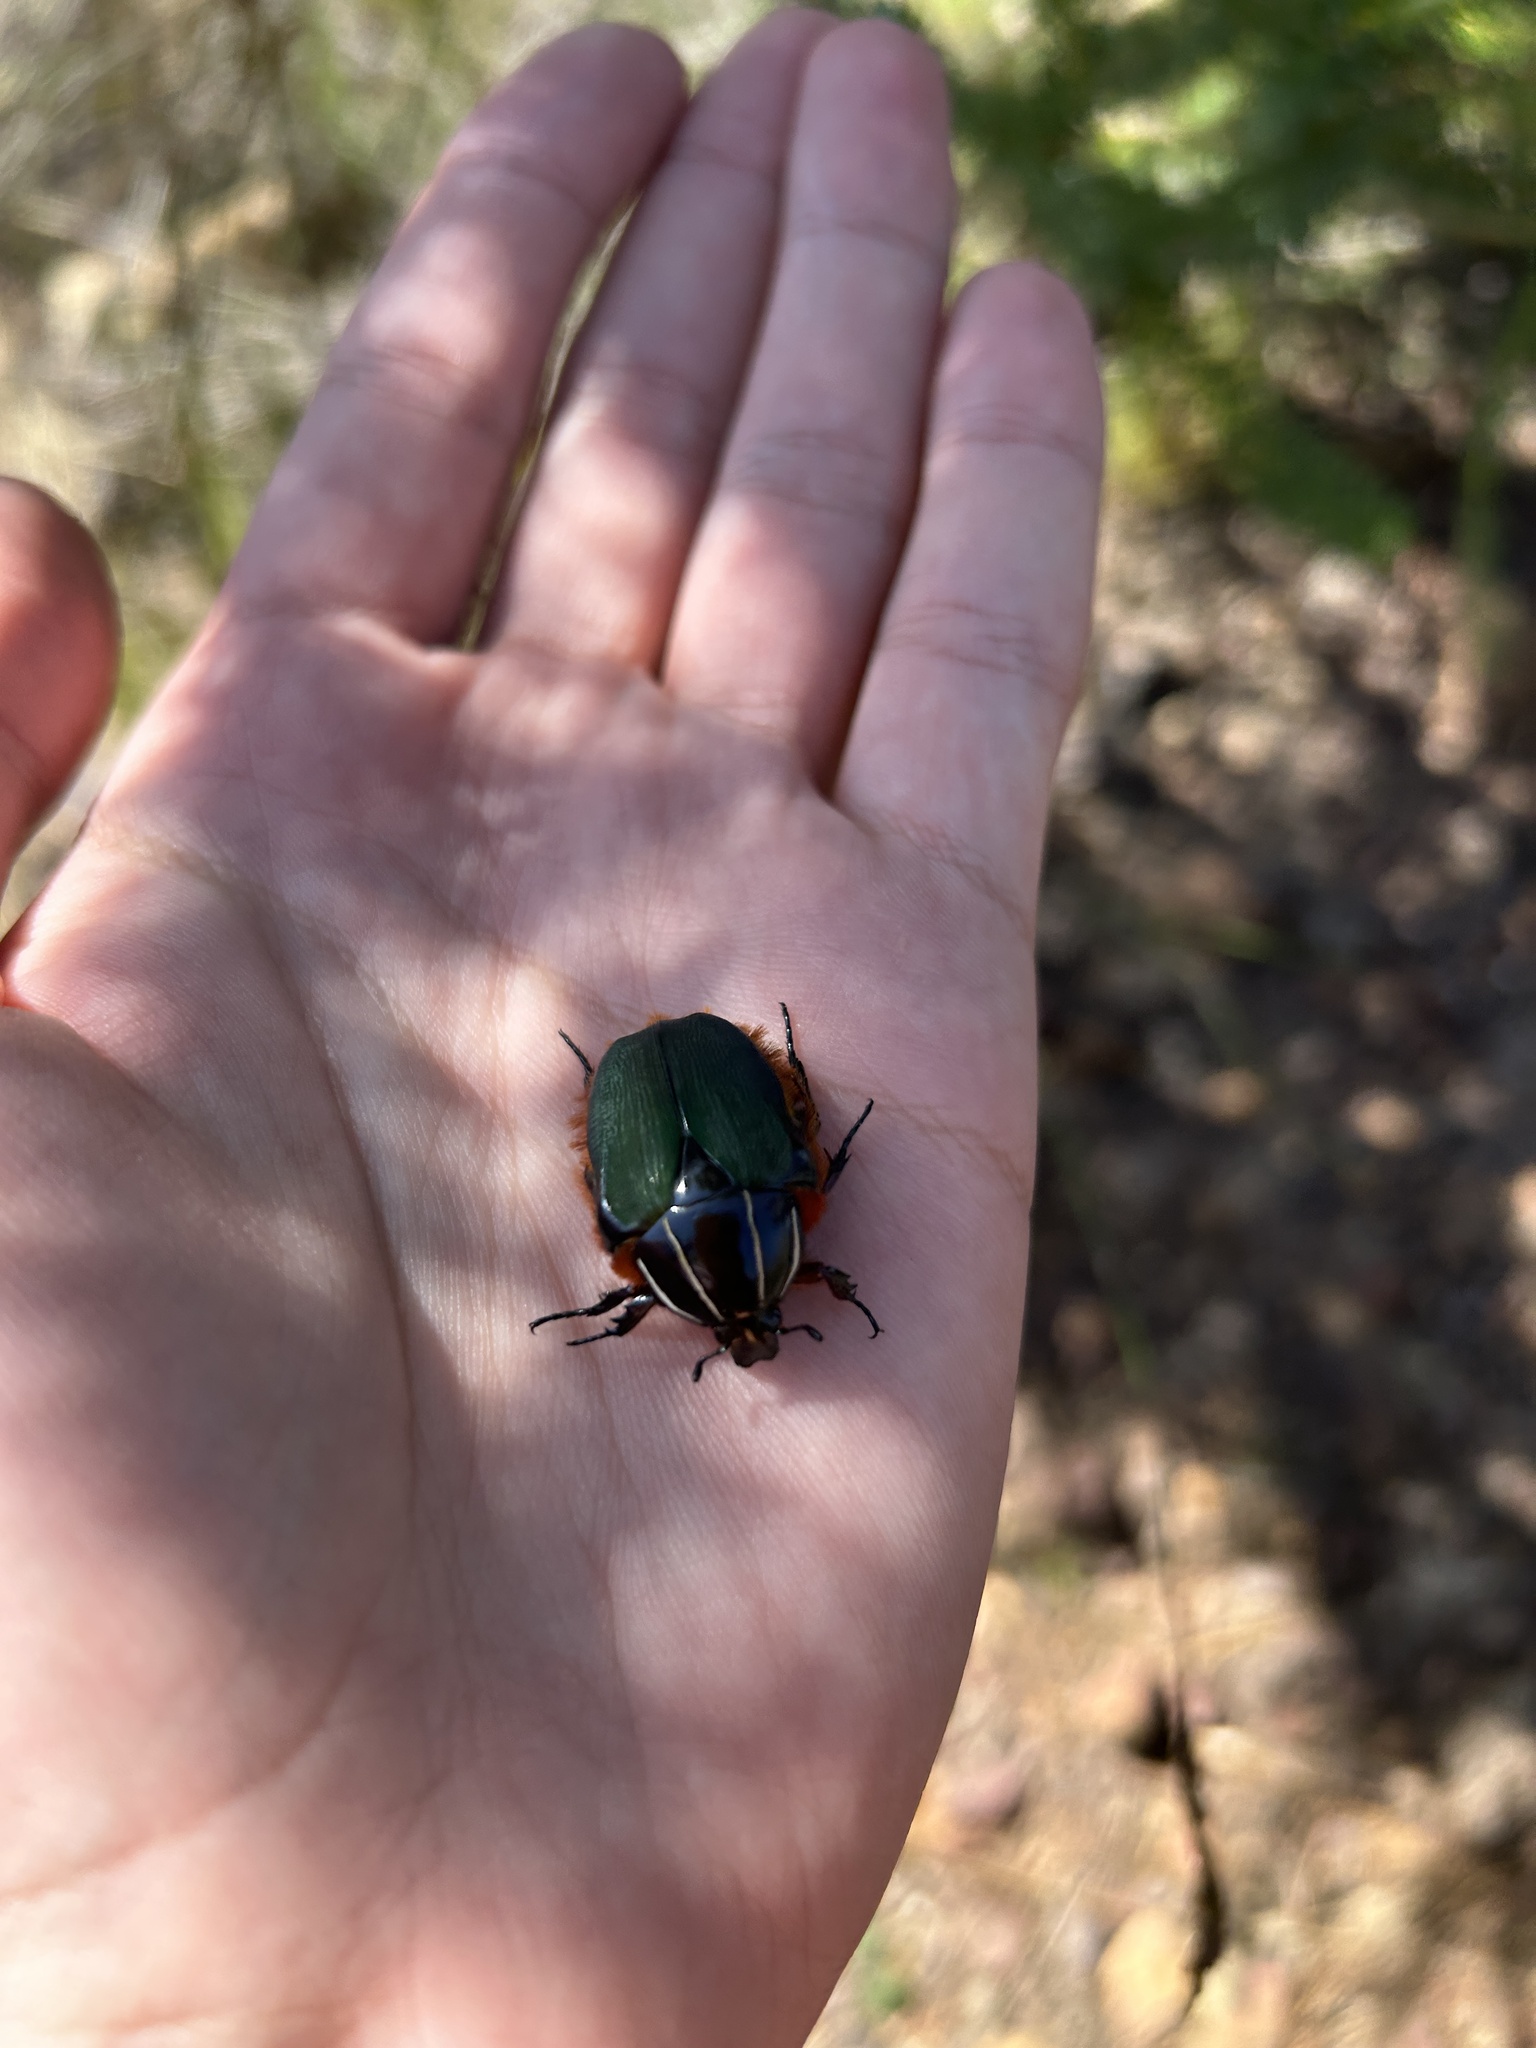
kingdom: Animalia
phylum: Arthropoda
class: Insecta
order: Coleoptera
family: Scarabaeidae
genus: Trichostetha
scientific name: Trichostetha fascicularis
